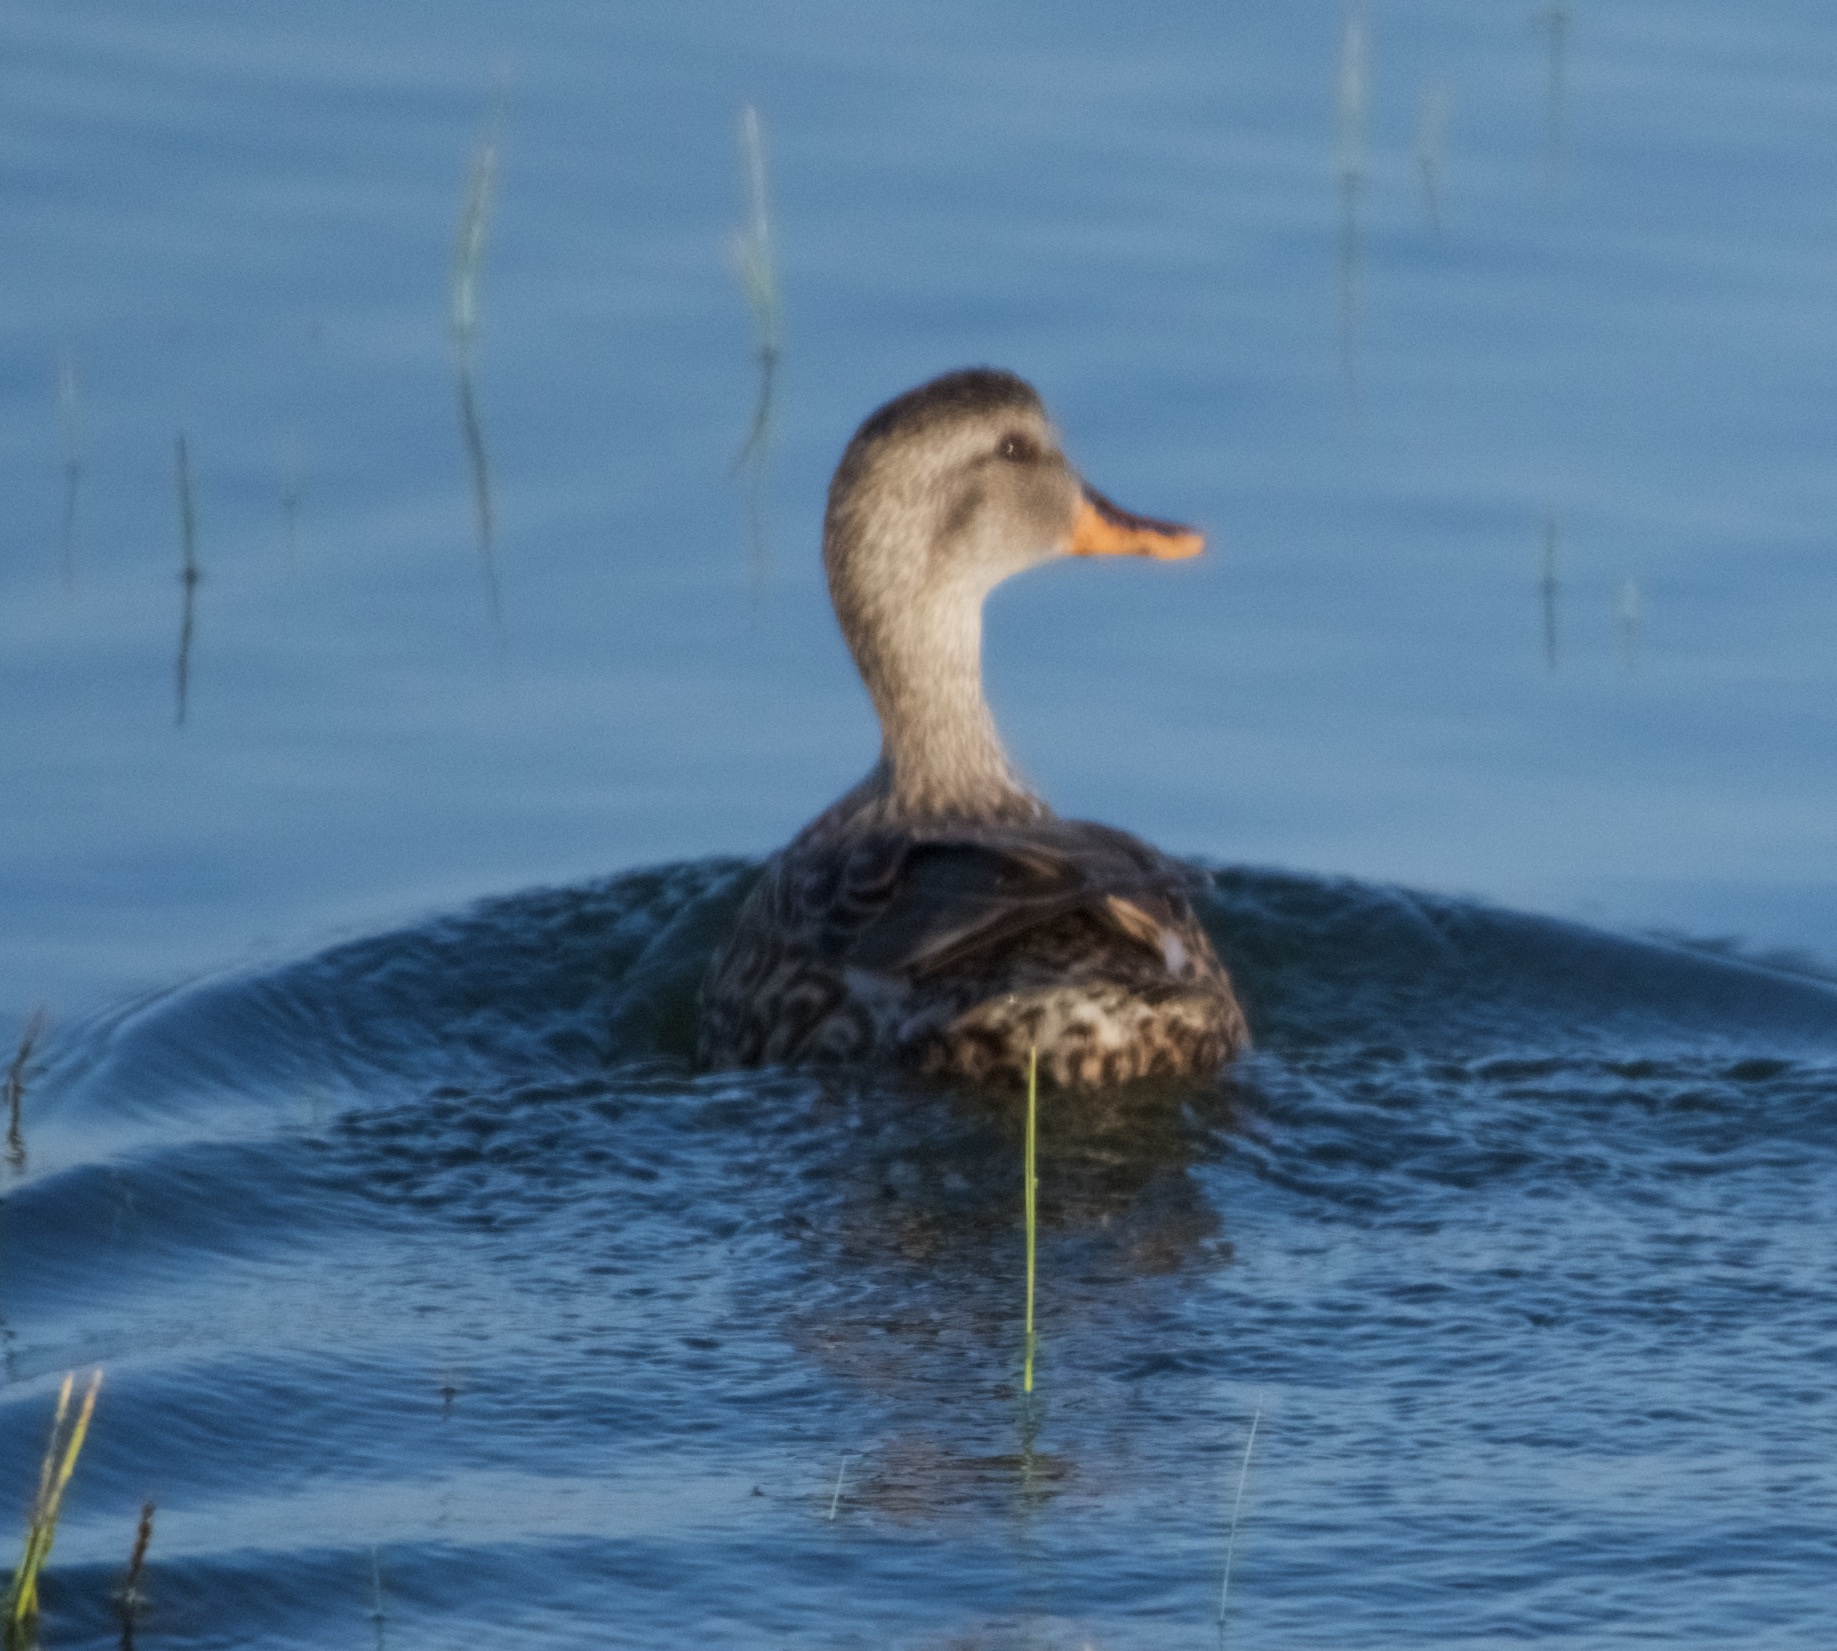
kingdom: Animalia
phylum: Chordata
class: Aves
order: Anseriformes
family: Anatidae
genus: Mareca
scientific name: Mareca strepera
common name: Gadwall
